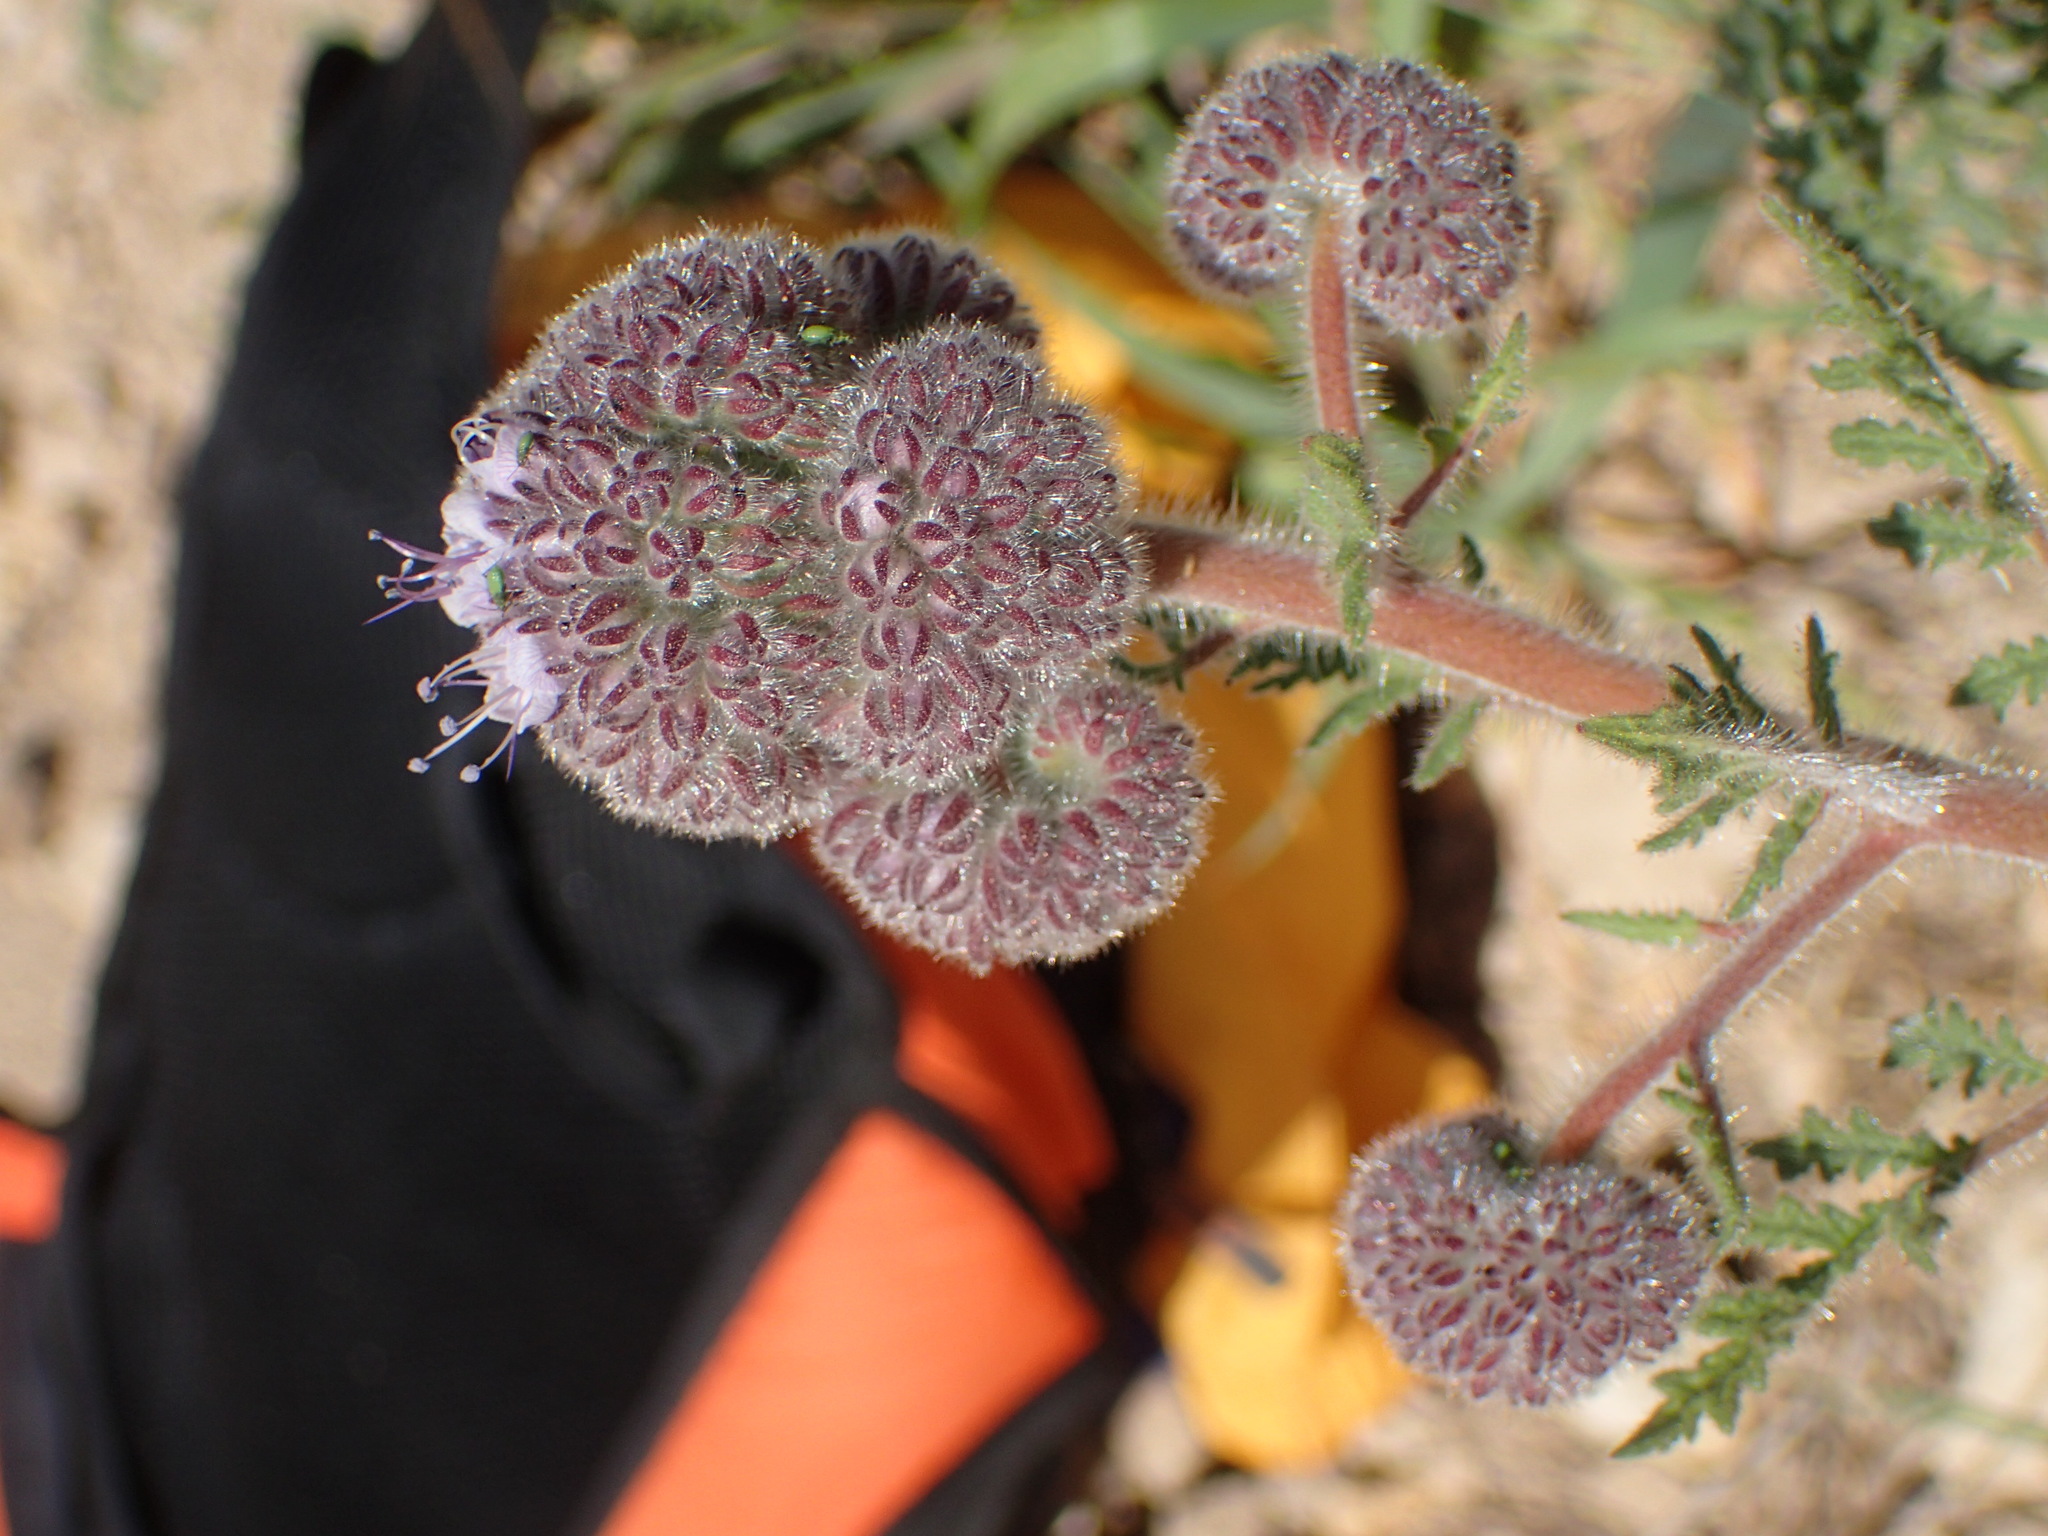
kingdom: Plantae
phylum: Tracheophyta
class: Magnoliopsida
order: Boraginales
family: Hydrophyllaceae
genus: Phacelia
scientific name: Phacelia hubbyi
